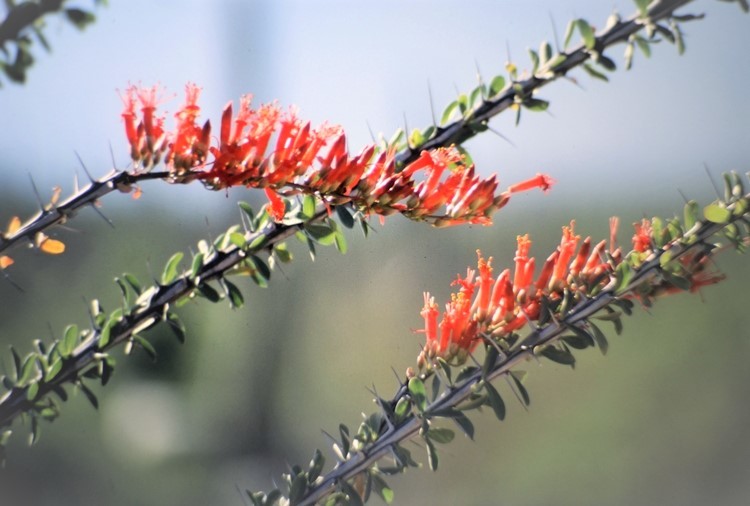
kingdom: Plantae
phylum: Tracheophyta
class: Magnoliopsida
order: Ericales
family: Fouquieriaceae
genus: Fouquieria
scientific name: Fouquieria splendens
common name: Vine-cactus
